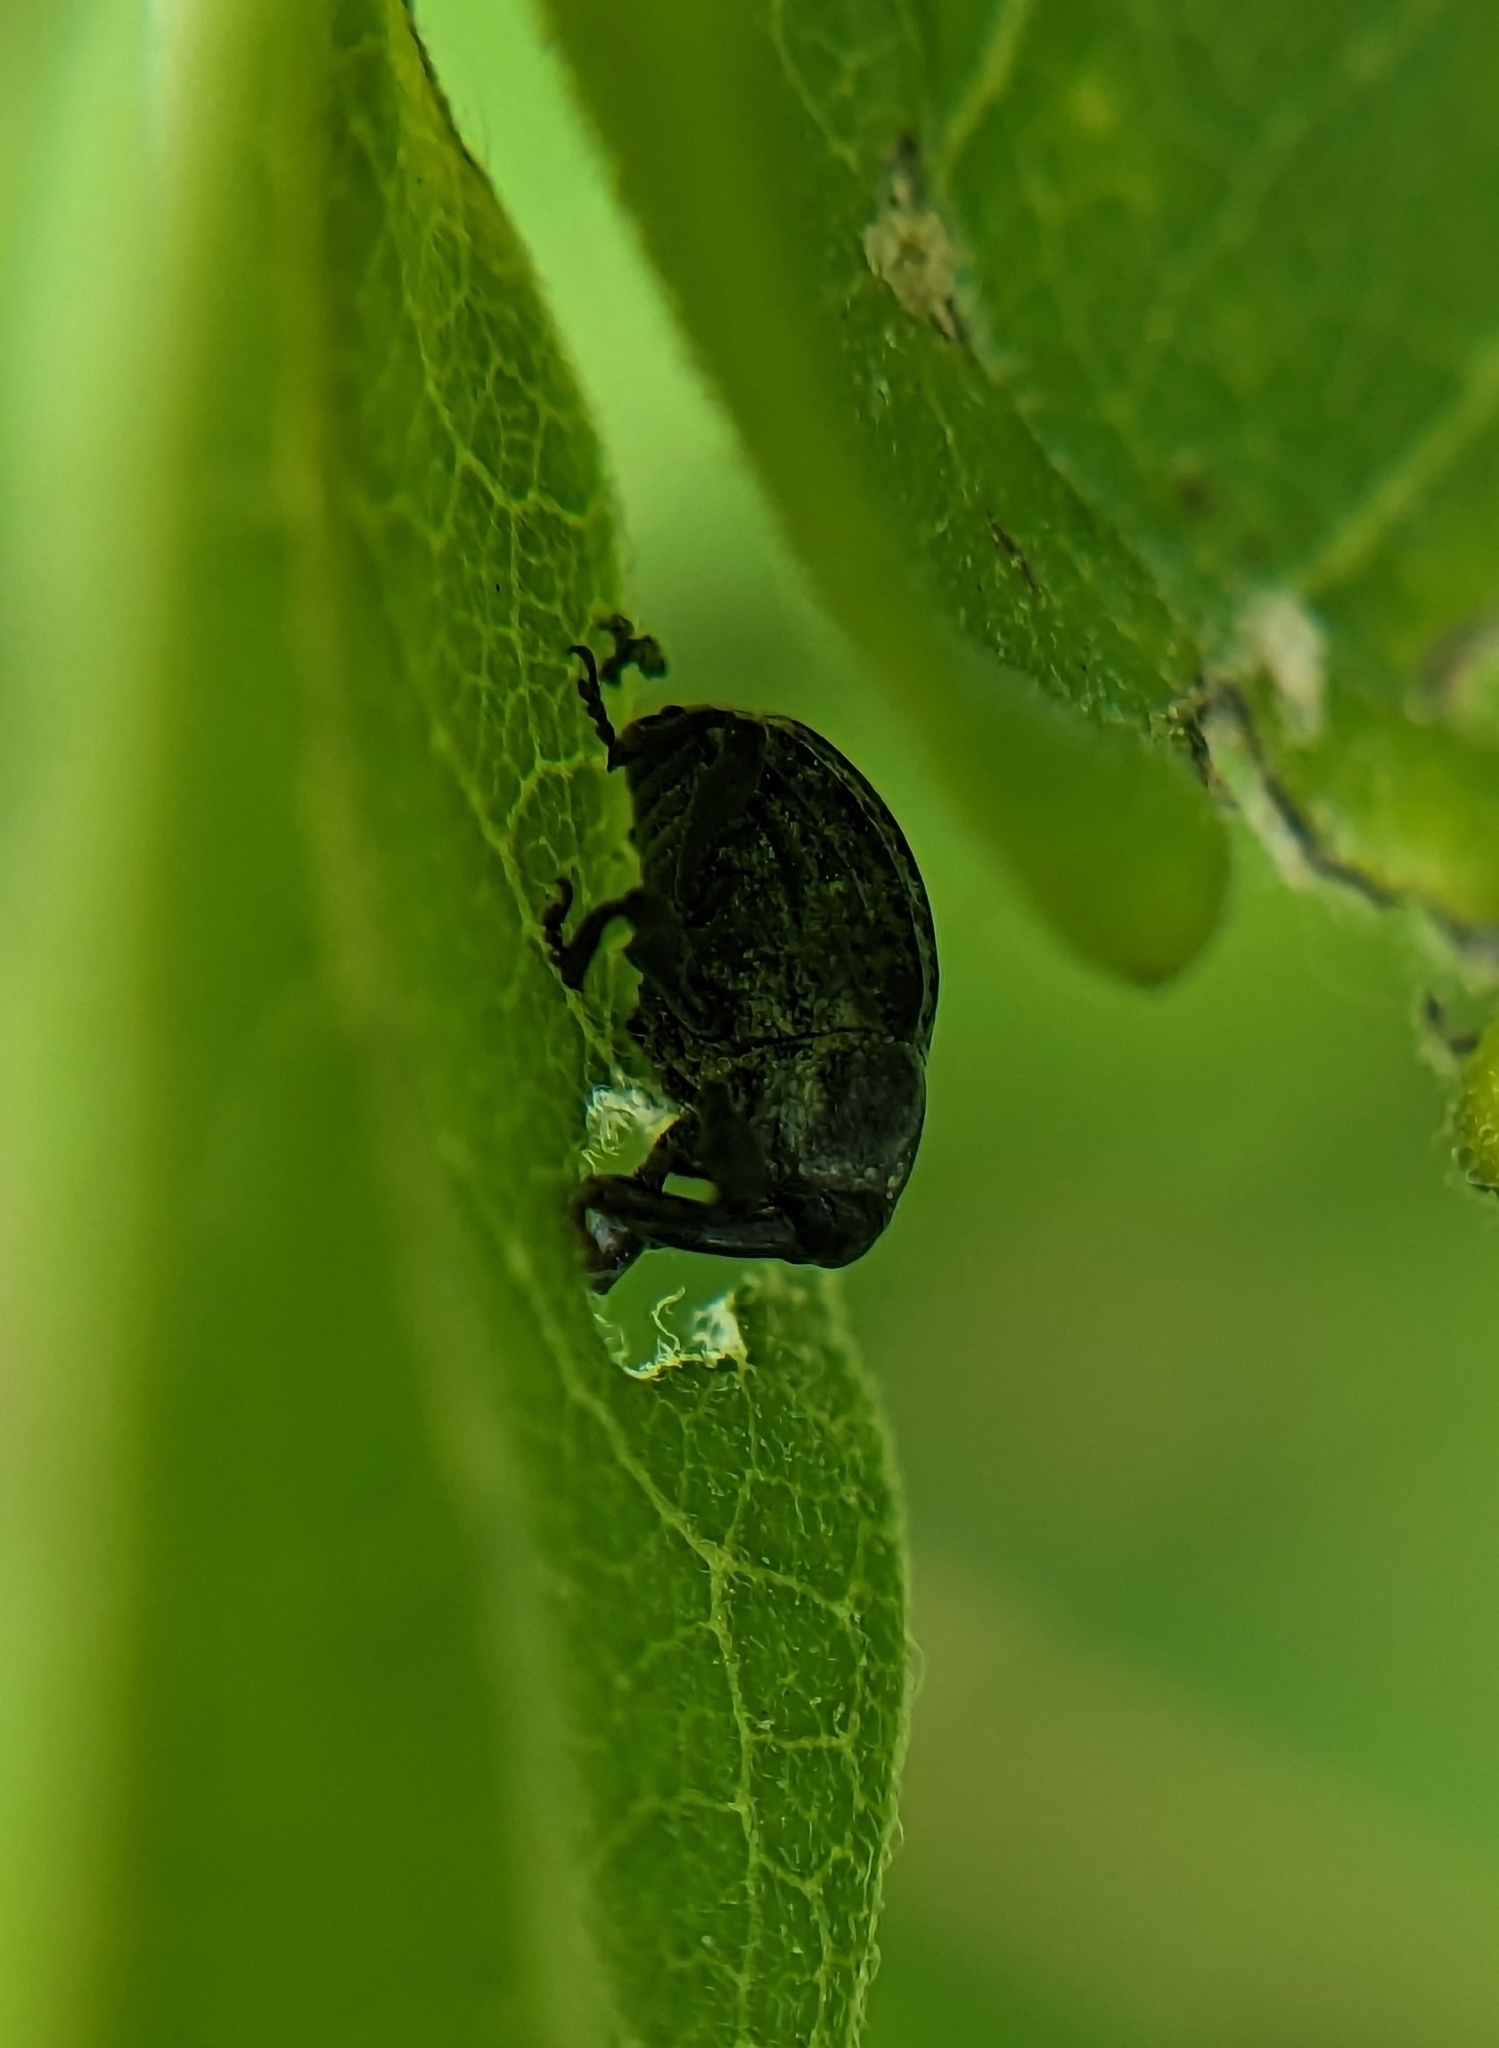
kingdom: Animalia
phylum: Arthropoda
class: Insecta
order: Coleoptera
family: Curculionidae
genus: Rhyssomatus
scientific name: Rhyssomatus lineaticollis
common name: Milkweed stem weevil
